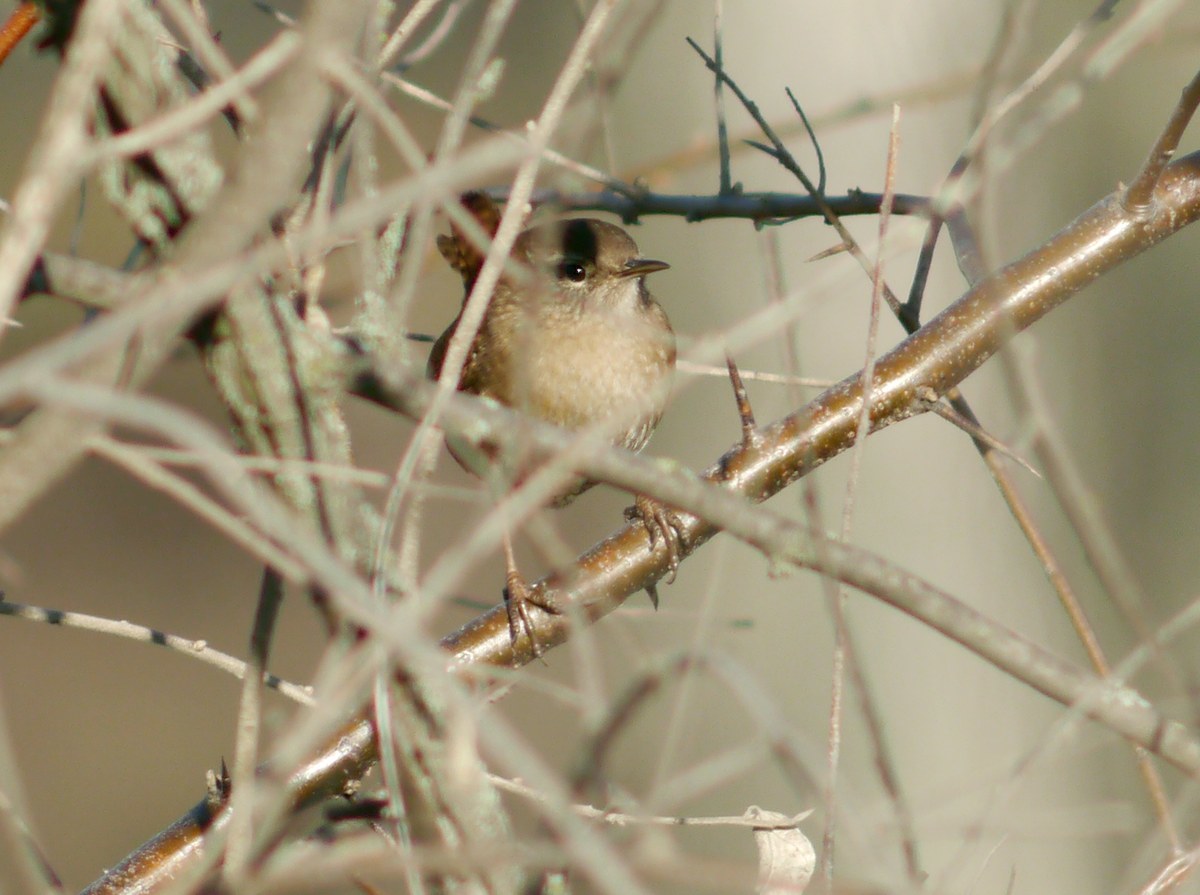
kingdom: Animalia
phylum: Chordata
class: Aves
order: Passeriformes
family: Troglodytidae
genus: Troglodytes
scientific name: Troglodytes troglodytes
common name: Eurasian wren
